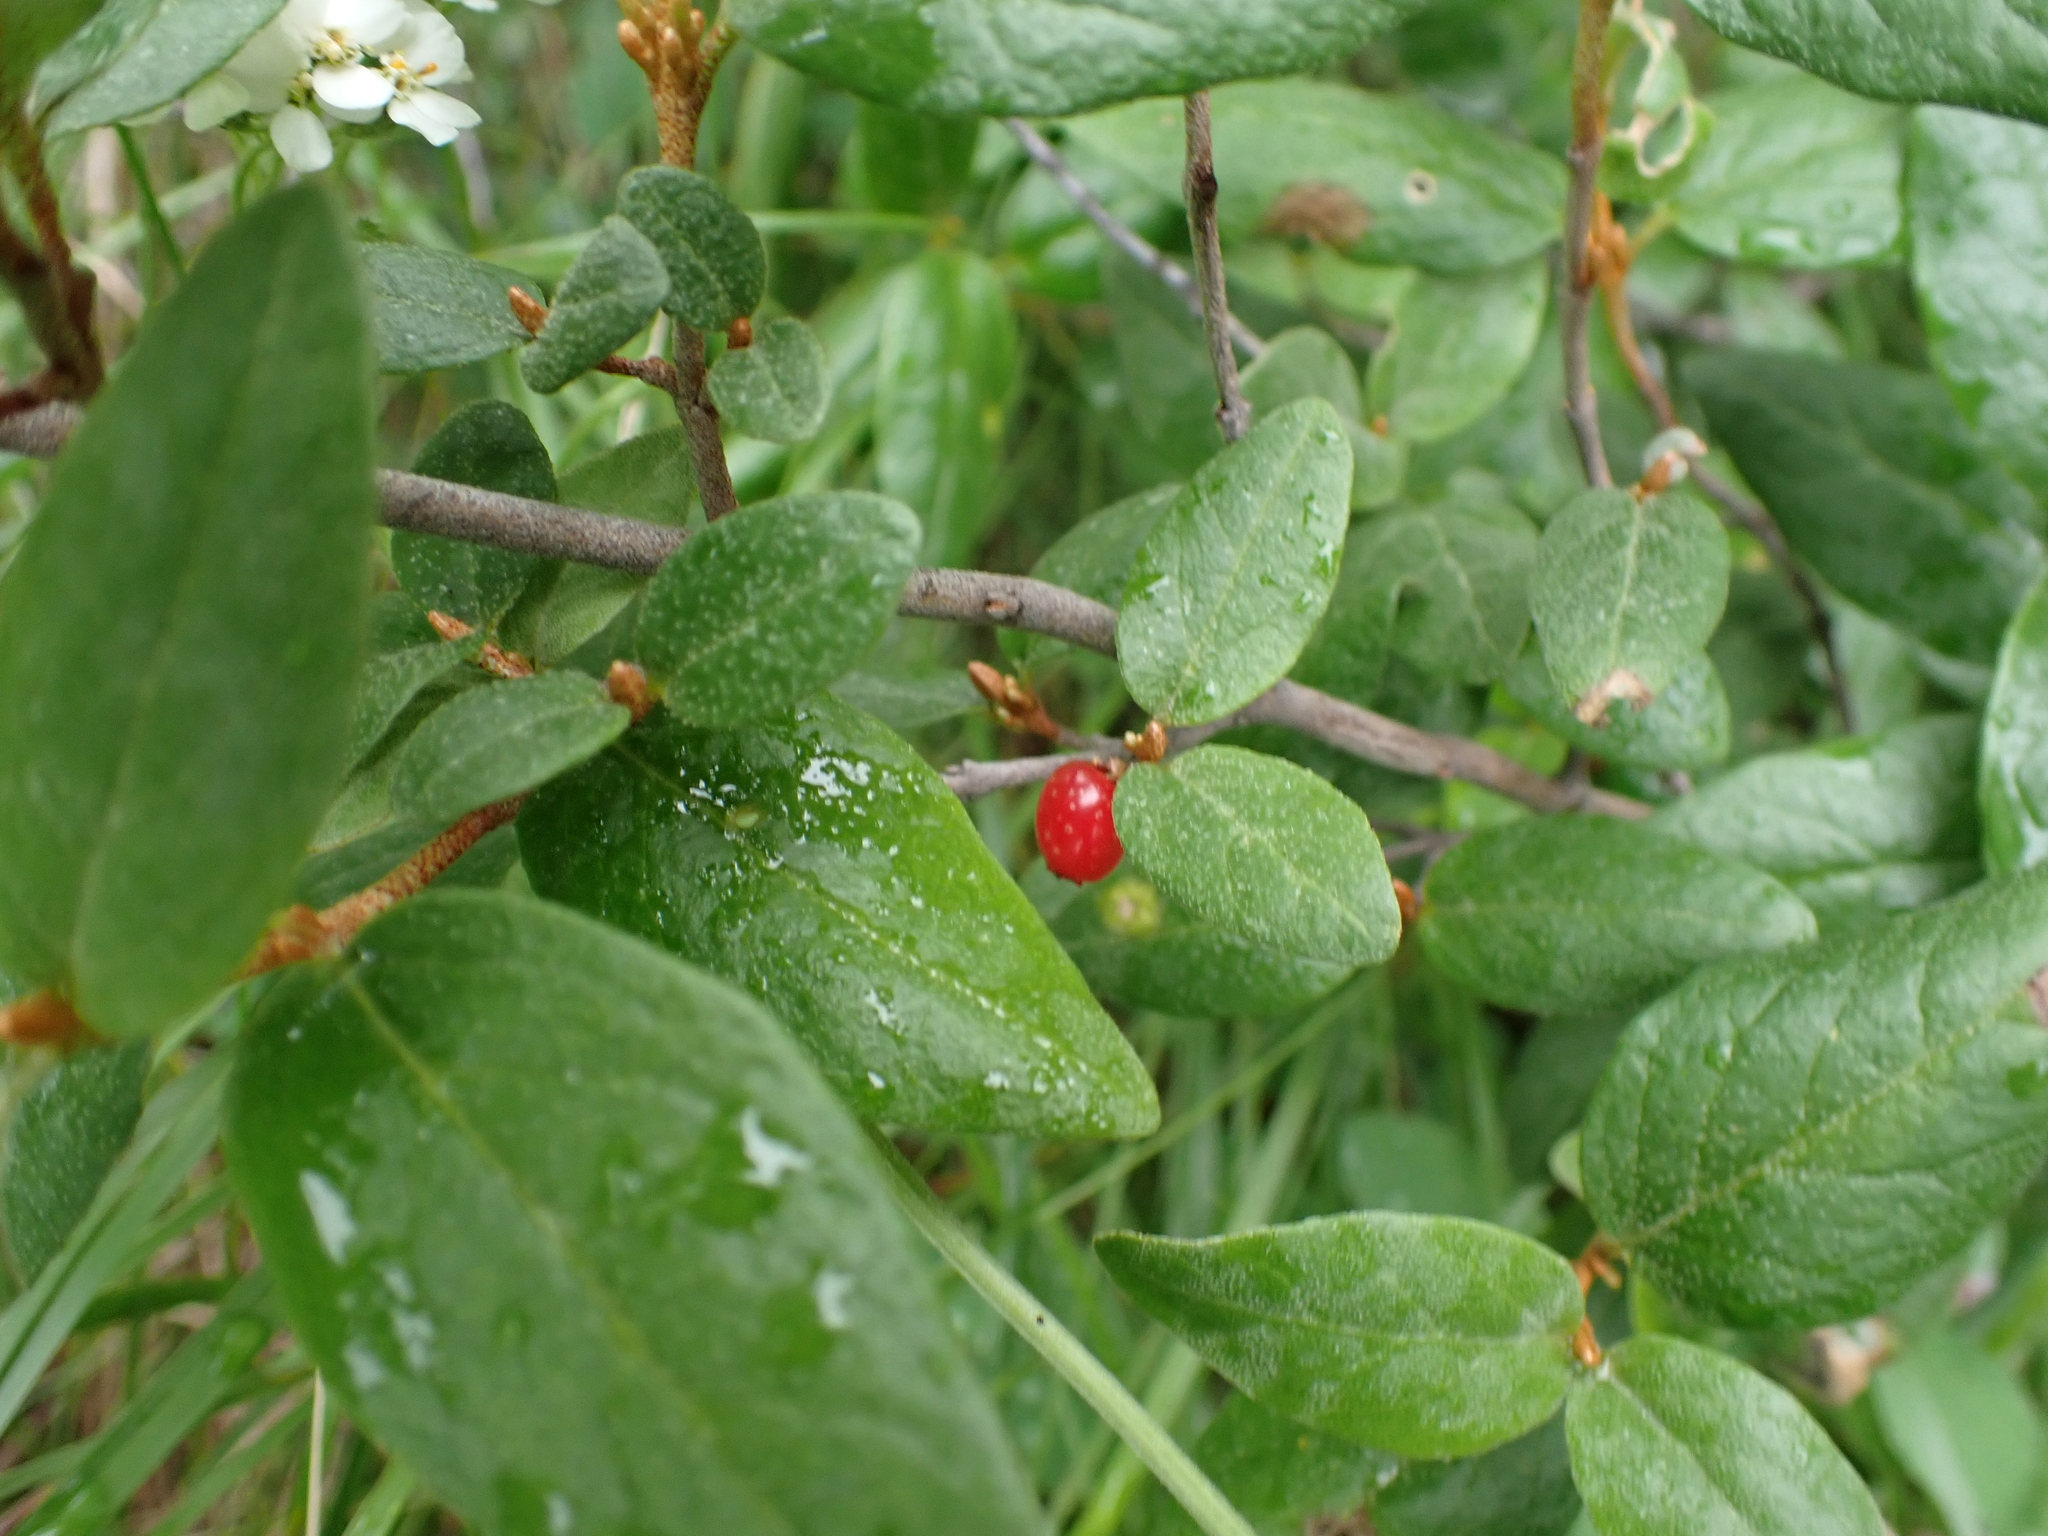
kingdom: Plantae
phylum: Tracheophyta
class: Magnoliopsida
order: Rosales
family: Elaeagnaceae
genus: Shepherdia
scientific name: Shepherdia canadensis
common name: Soapberry
